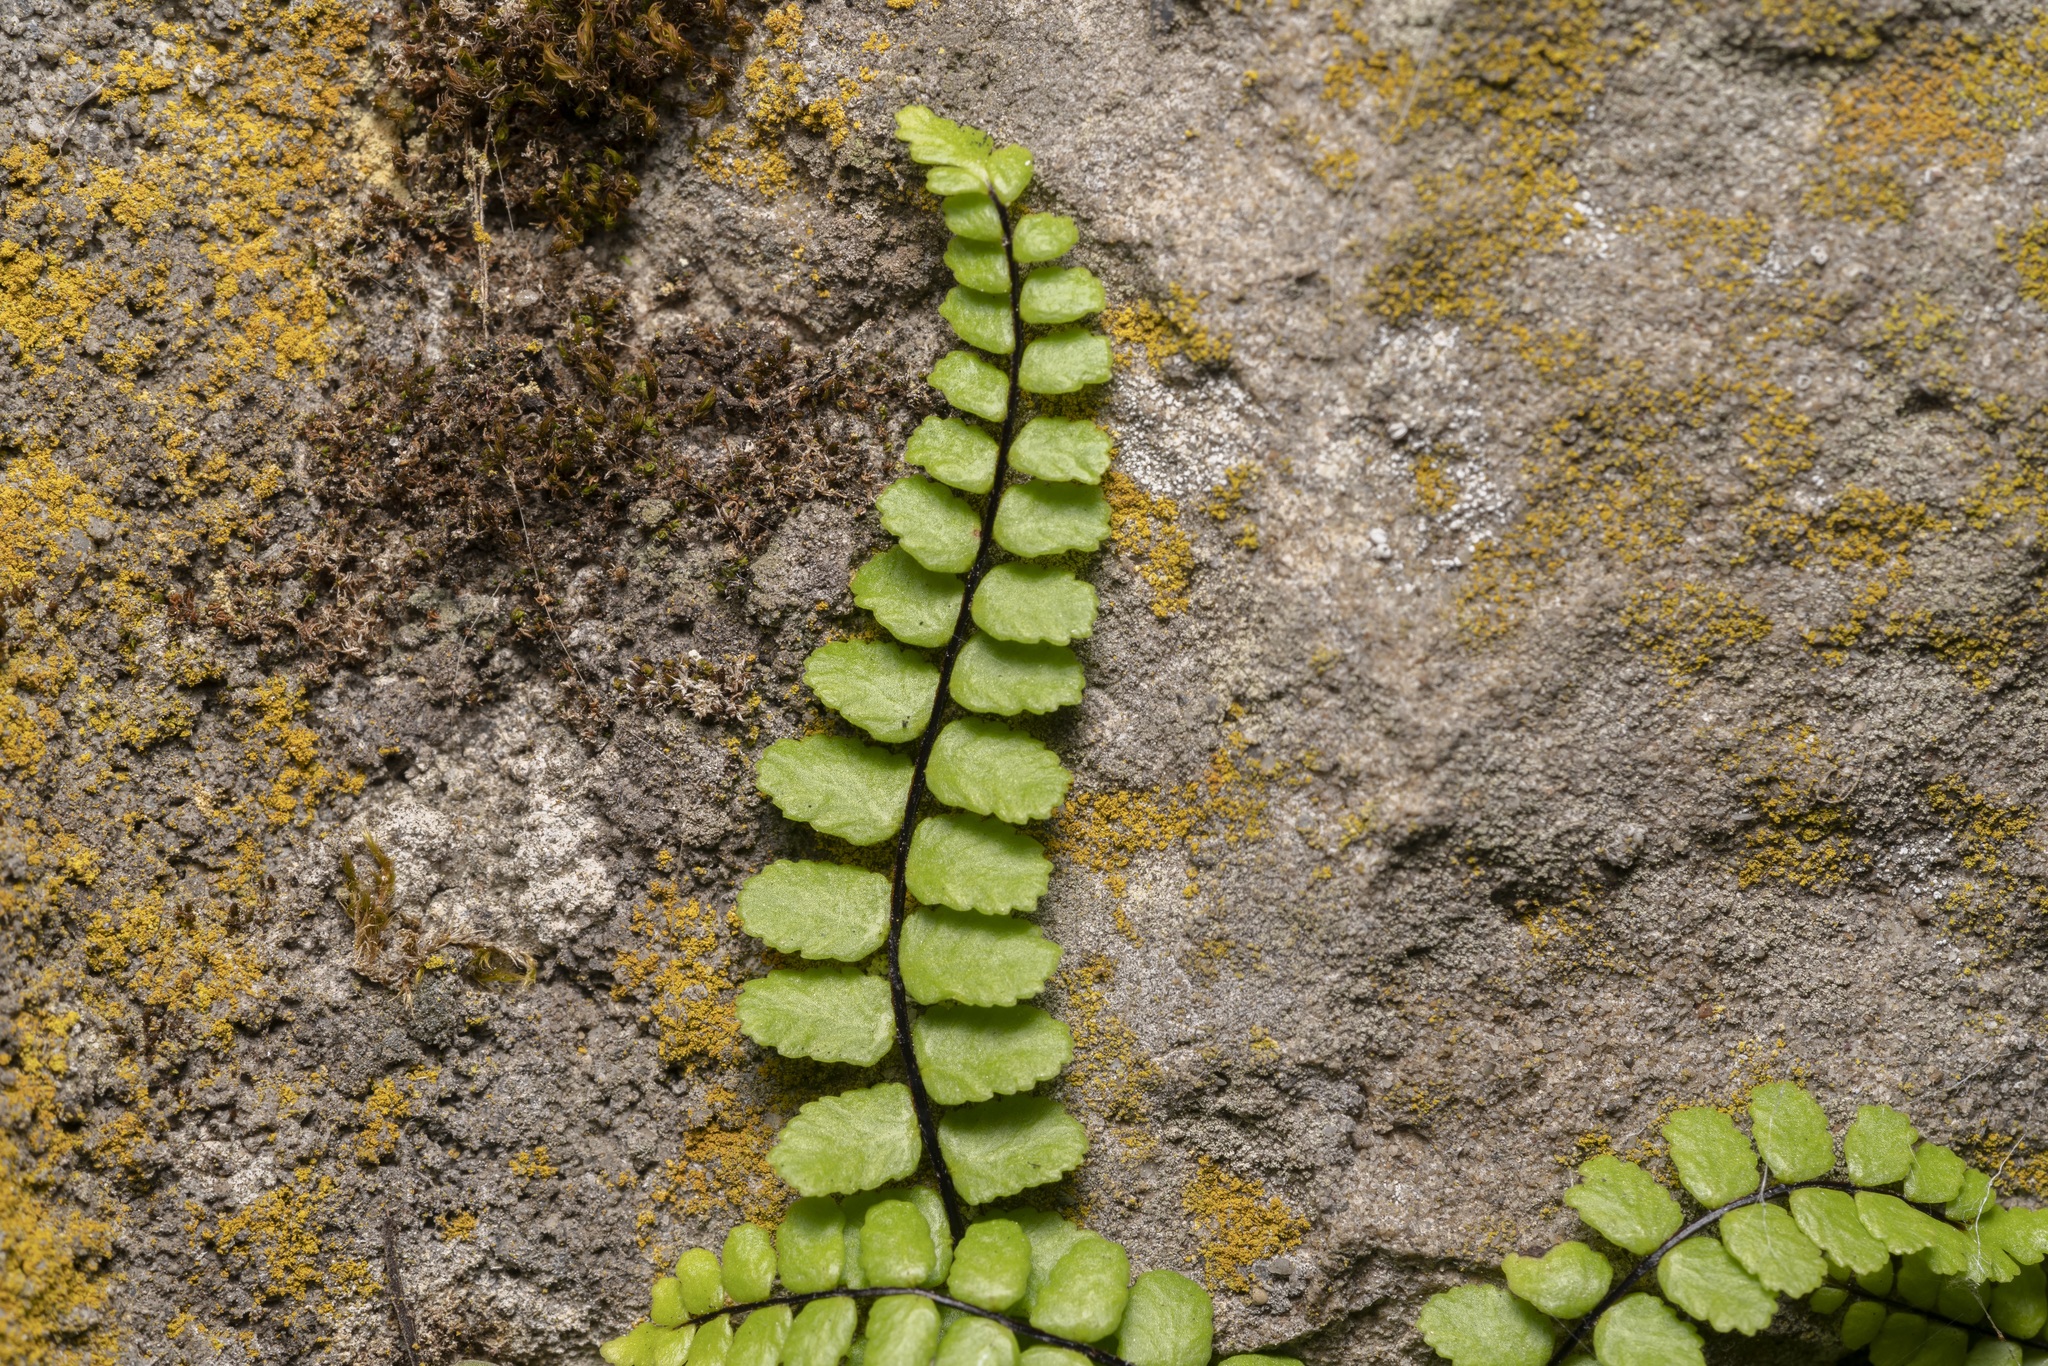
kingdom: Plantae
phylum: Tracheophyta
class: Polypodiopsida
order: Polypodiales
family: Aspleniaceae
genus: Asplenium
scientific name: Asplenium trichomanes
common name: Maidenhair spleenwort
